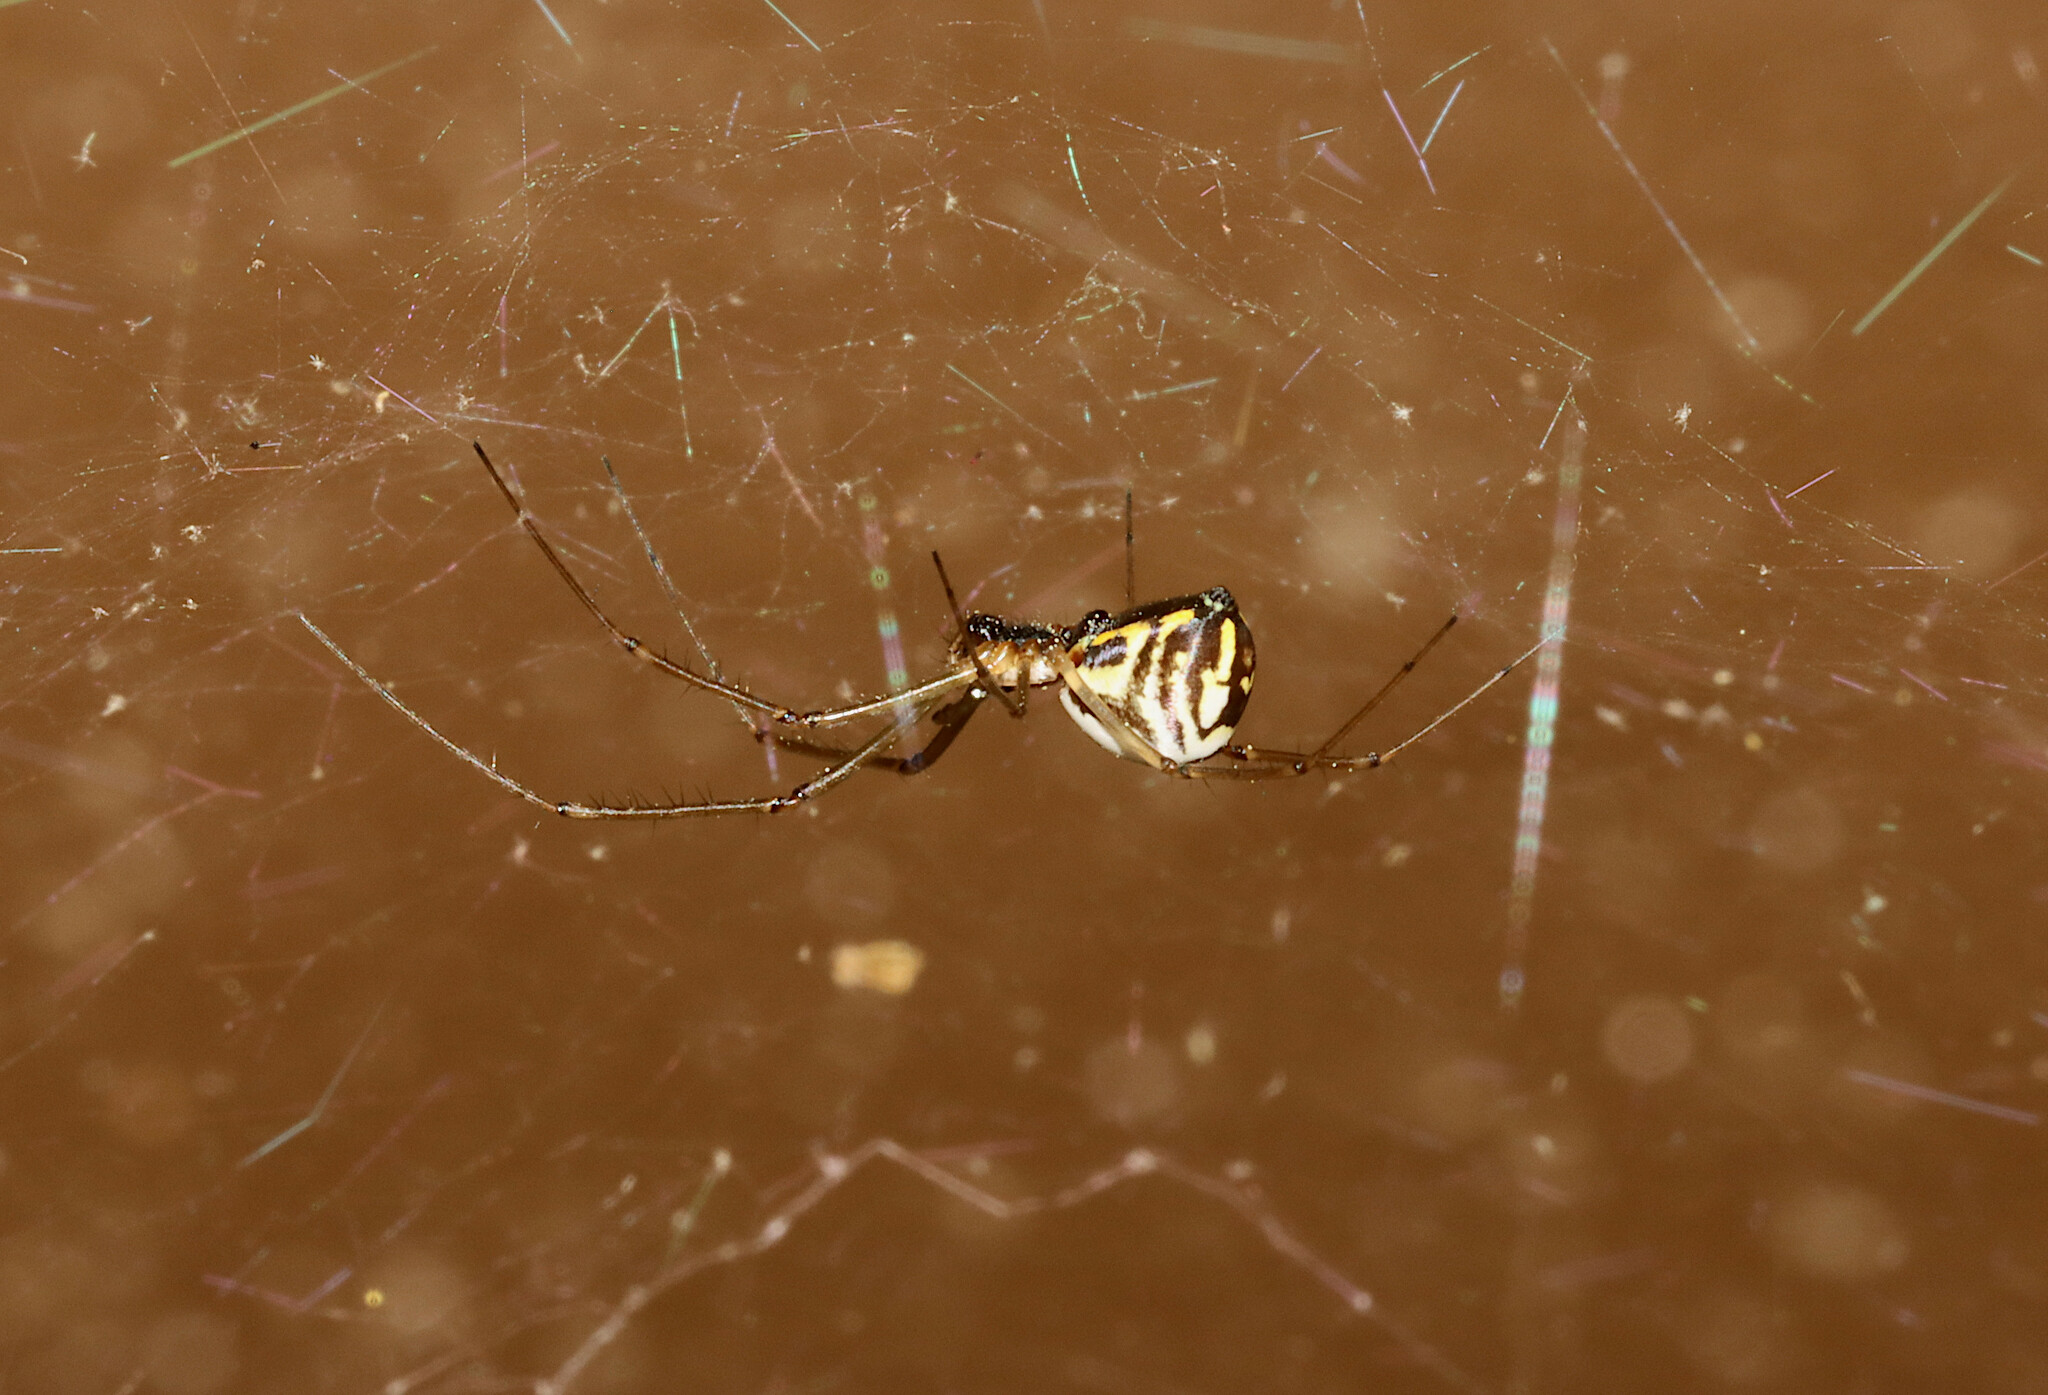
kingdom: Animalia
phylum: Arthropoda
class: Arachnida
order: Araneae
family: Linyphiidae
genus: Neriene
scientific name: Neriene radiata
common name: Filmy dome spider
